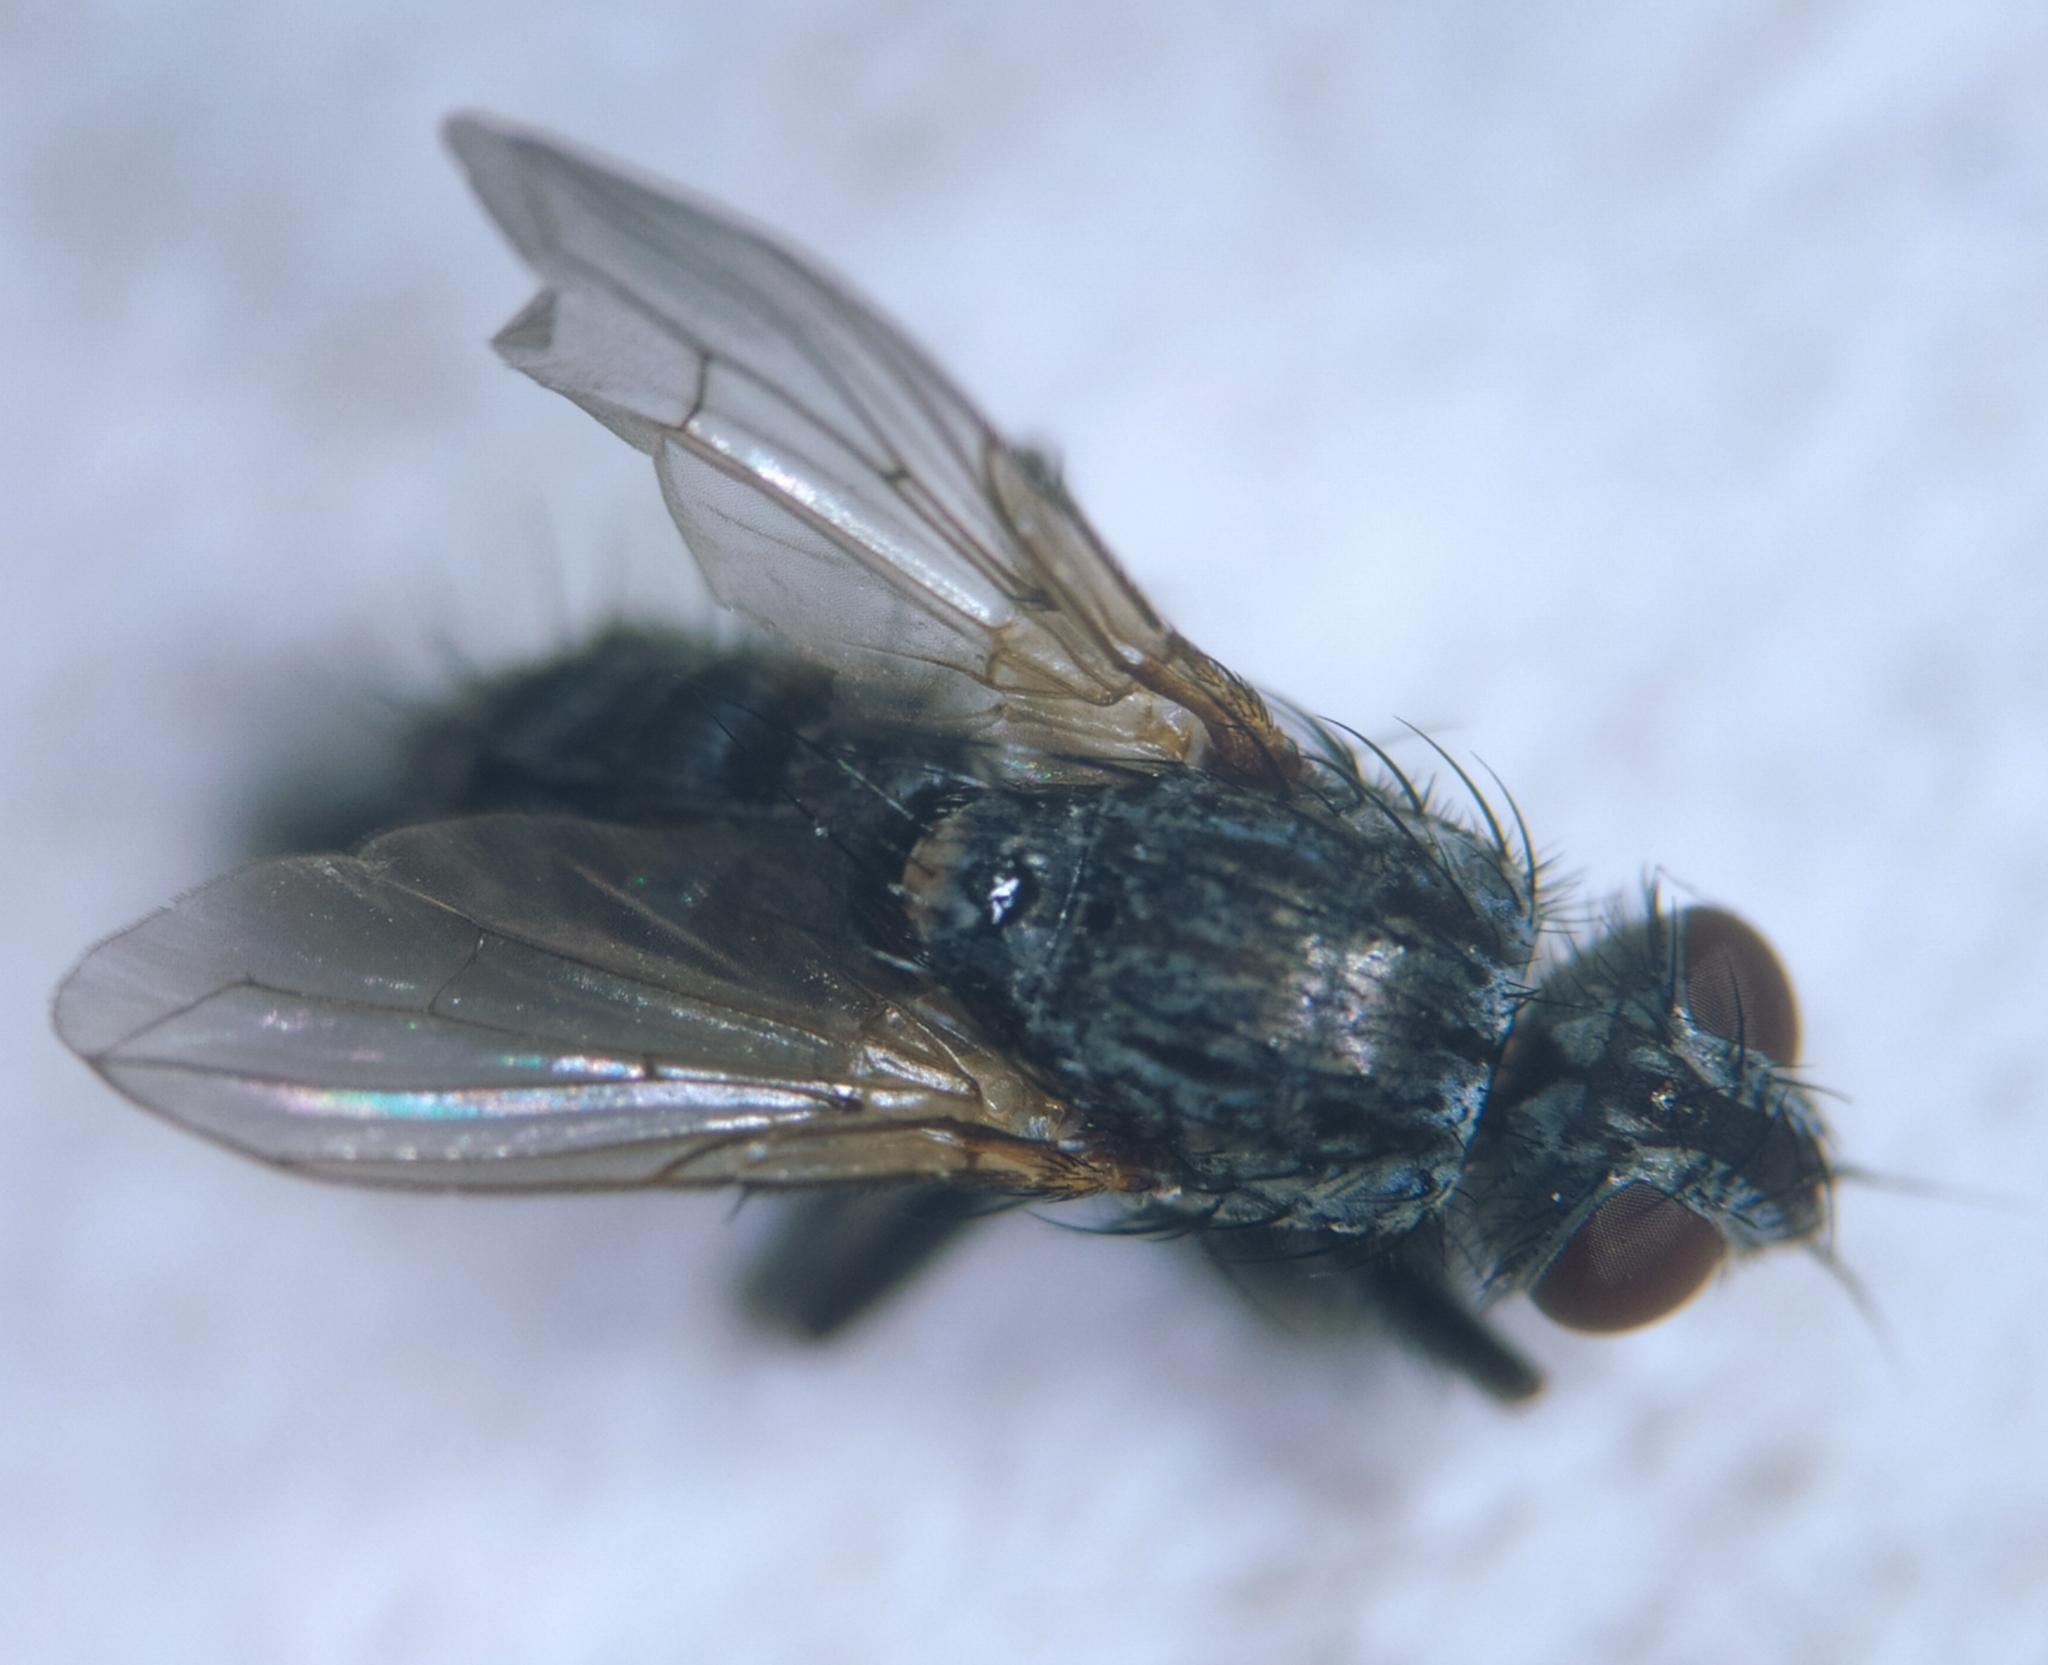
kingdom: Animalia
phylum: Arthropoda
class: Insecta
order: Diptera
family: Calliphoridae
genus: Tricogena
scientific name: Tricogena rubricosa
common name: Red-shinned woodlouse-fly
